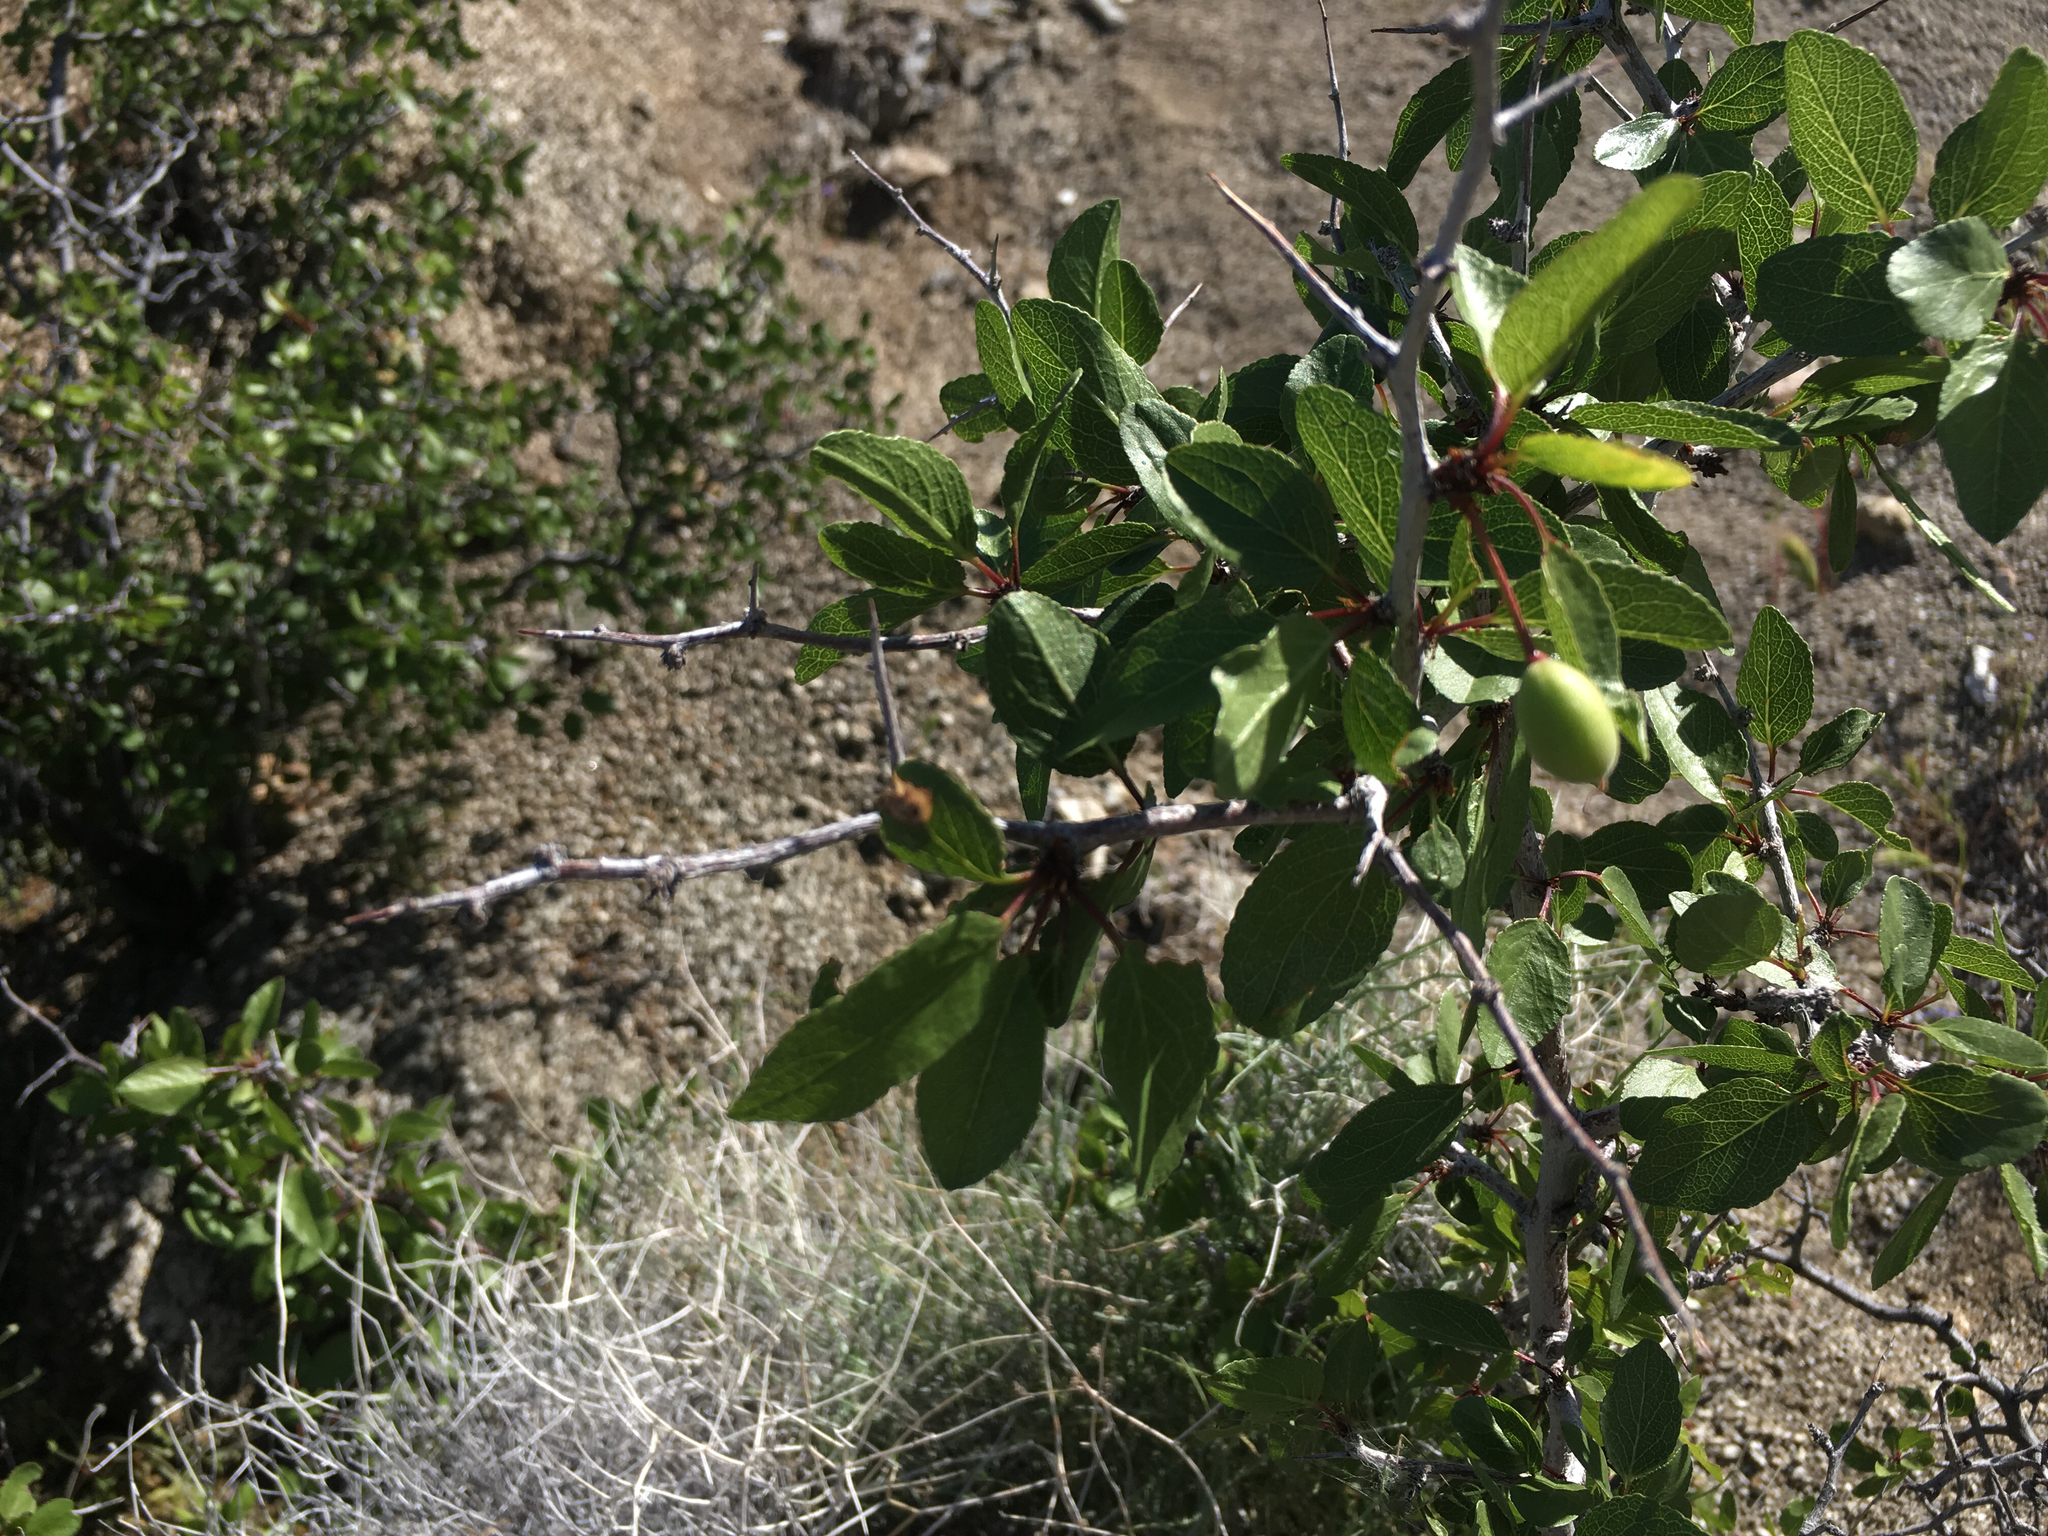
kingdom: Plantae
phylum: Tracheophyta
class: Magnoliopsida
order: Rosales
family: Rosaceae
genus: Prunus
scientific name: Prunus fremontii
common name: Desert apricot
